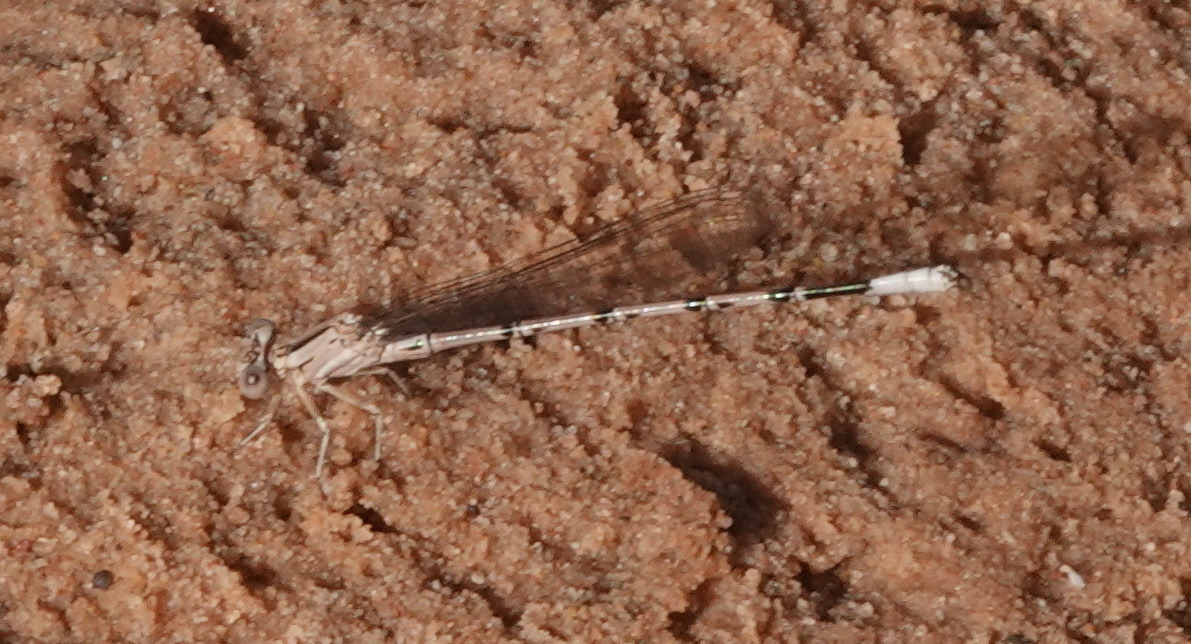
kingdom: Animalia
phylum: Arthropoda
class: Insecta
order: Odonata
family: Coenagrionidae
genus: Argia
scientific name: Argia vivida
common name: Vivid dancer
